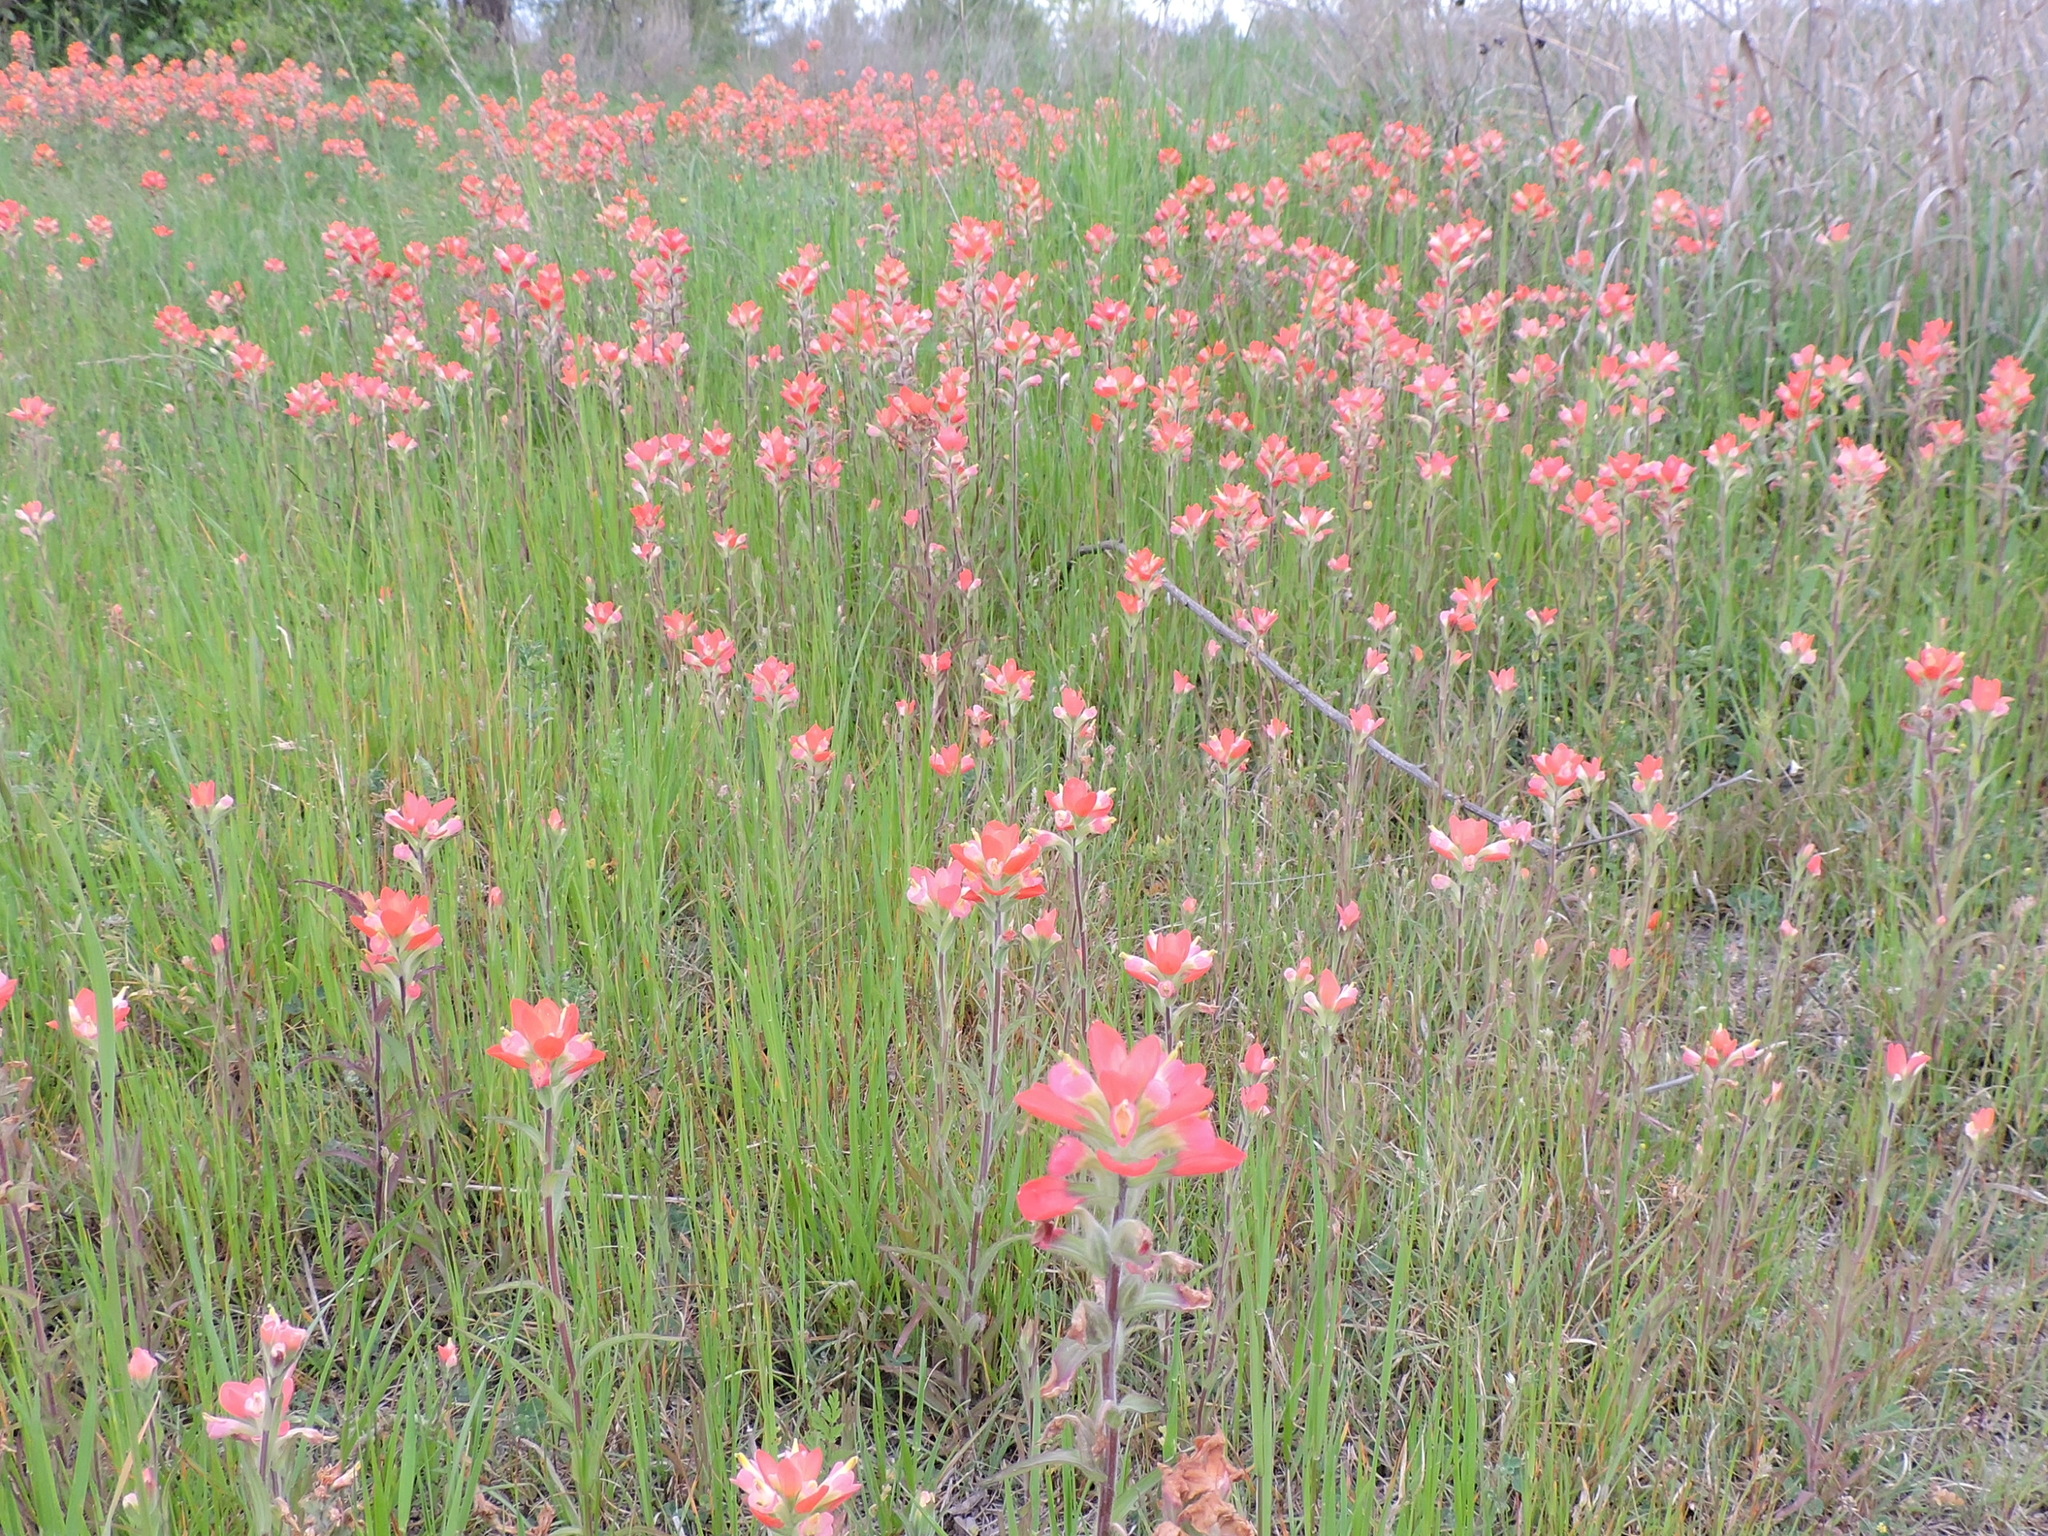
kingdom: Plantae
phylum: Tracheophyta
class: Magnoliopsida
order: Lamiales
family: Orobanchaceae
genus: Castilleja
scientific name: Castilleja indivisa
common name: Texas paintbrush
